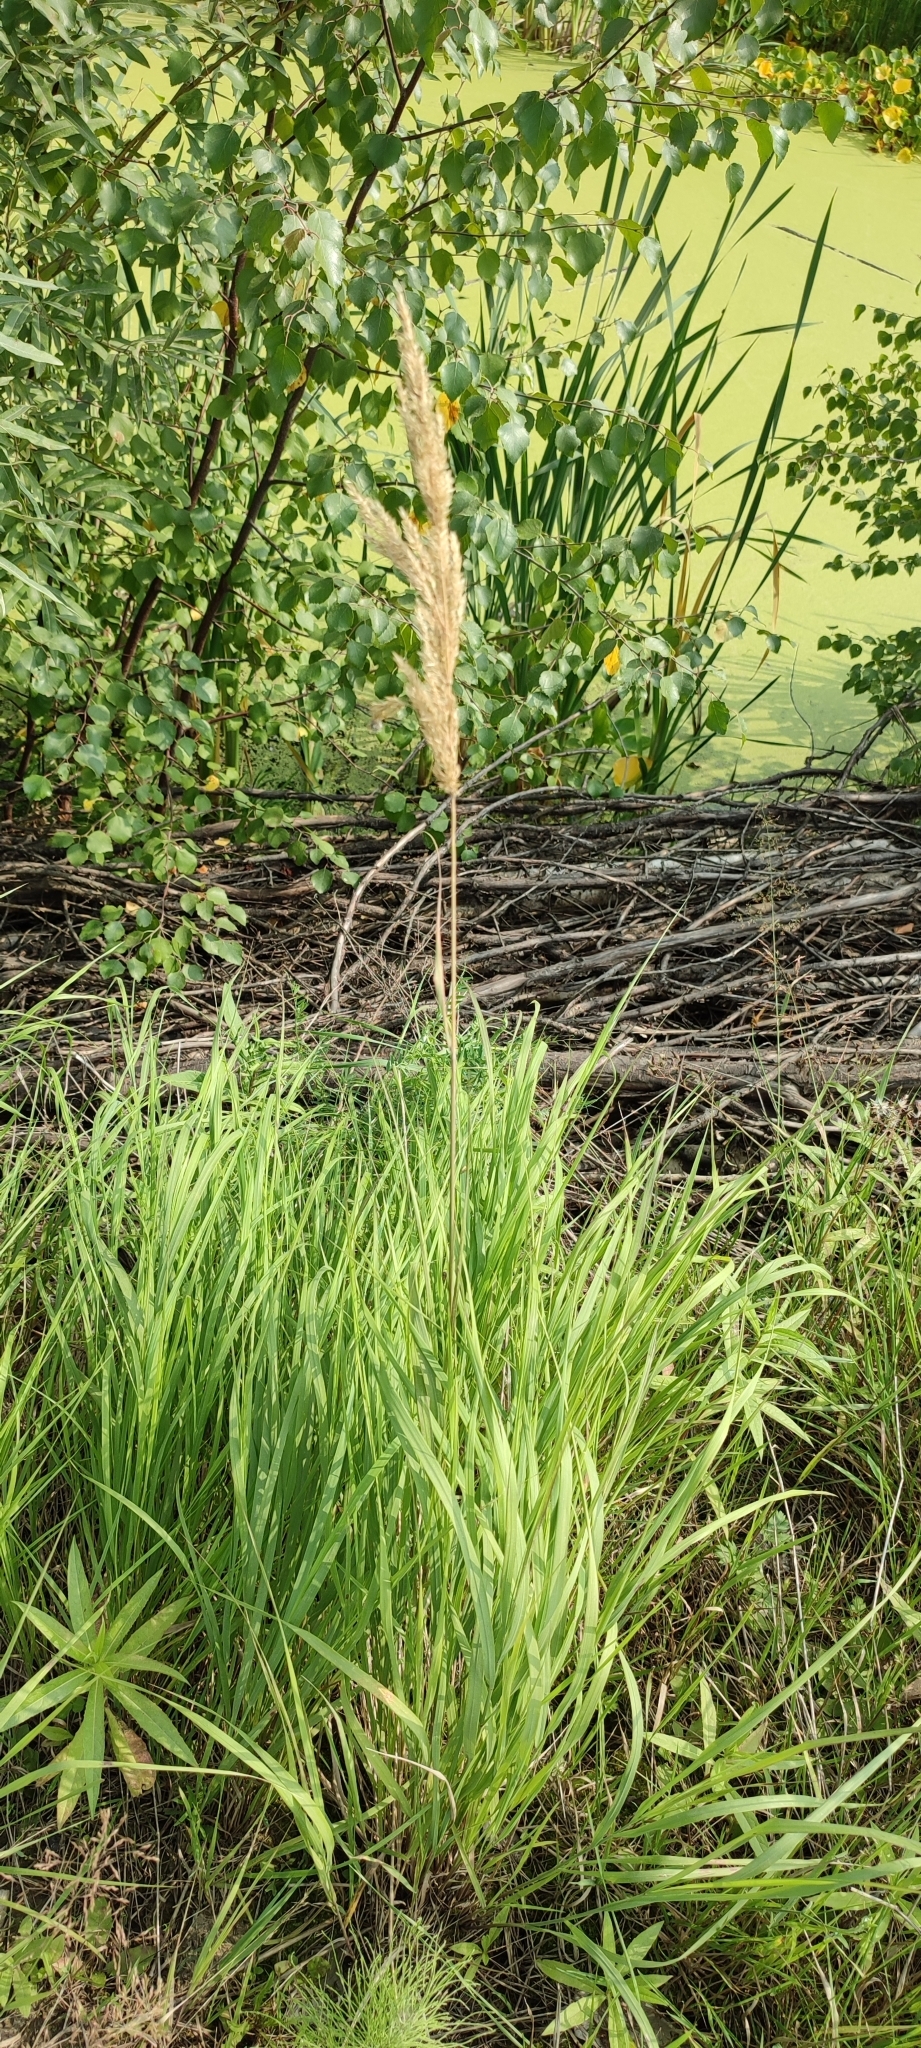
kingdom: Plantae
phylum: Tracheophyta
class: Liliopsida
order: Poales
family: Poaceae
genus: Calamagrostis
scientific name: Calamagrostis epigejos
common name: Wood small-reed
